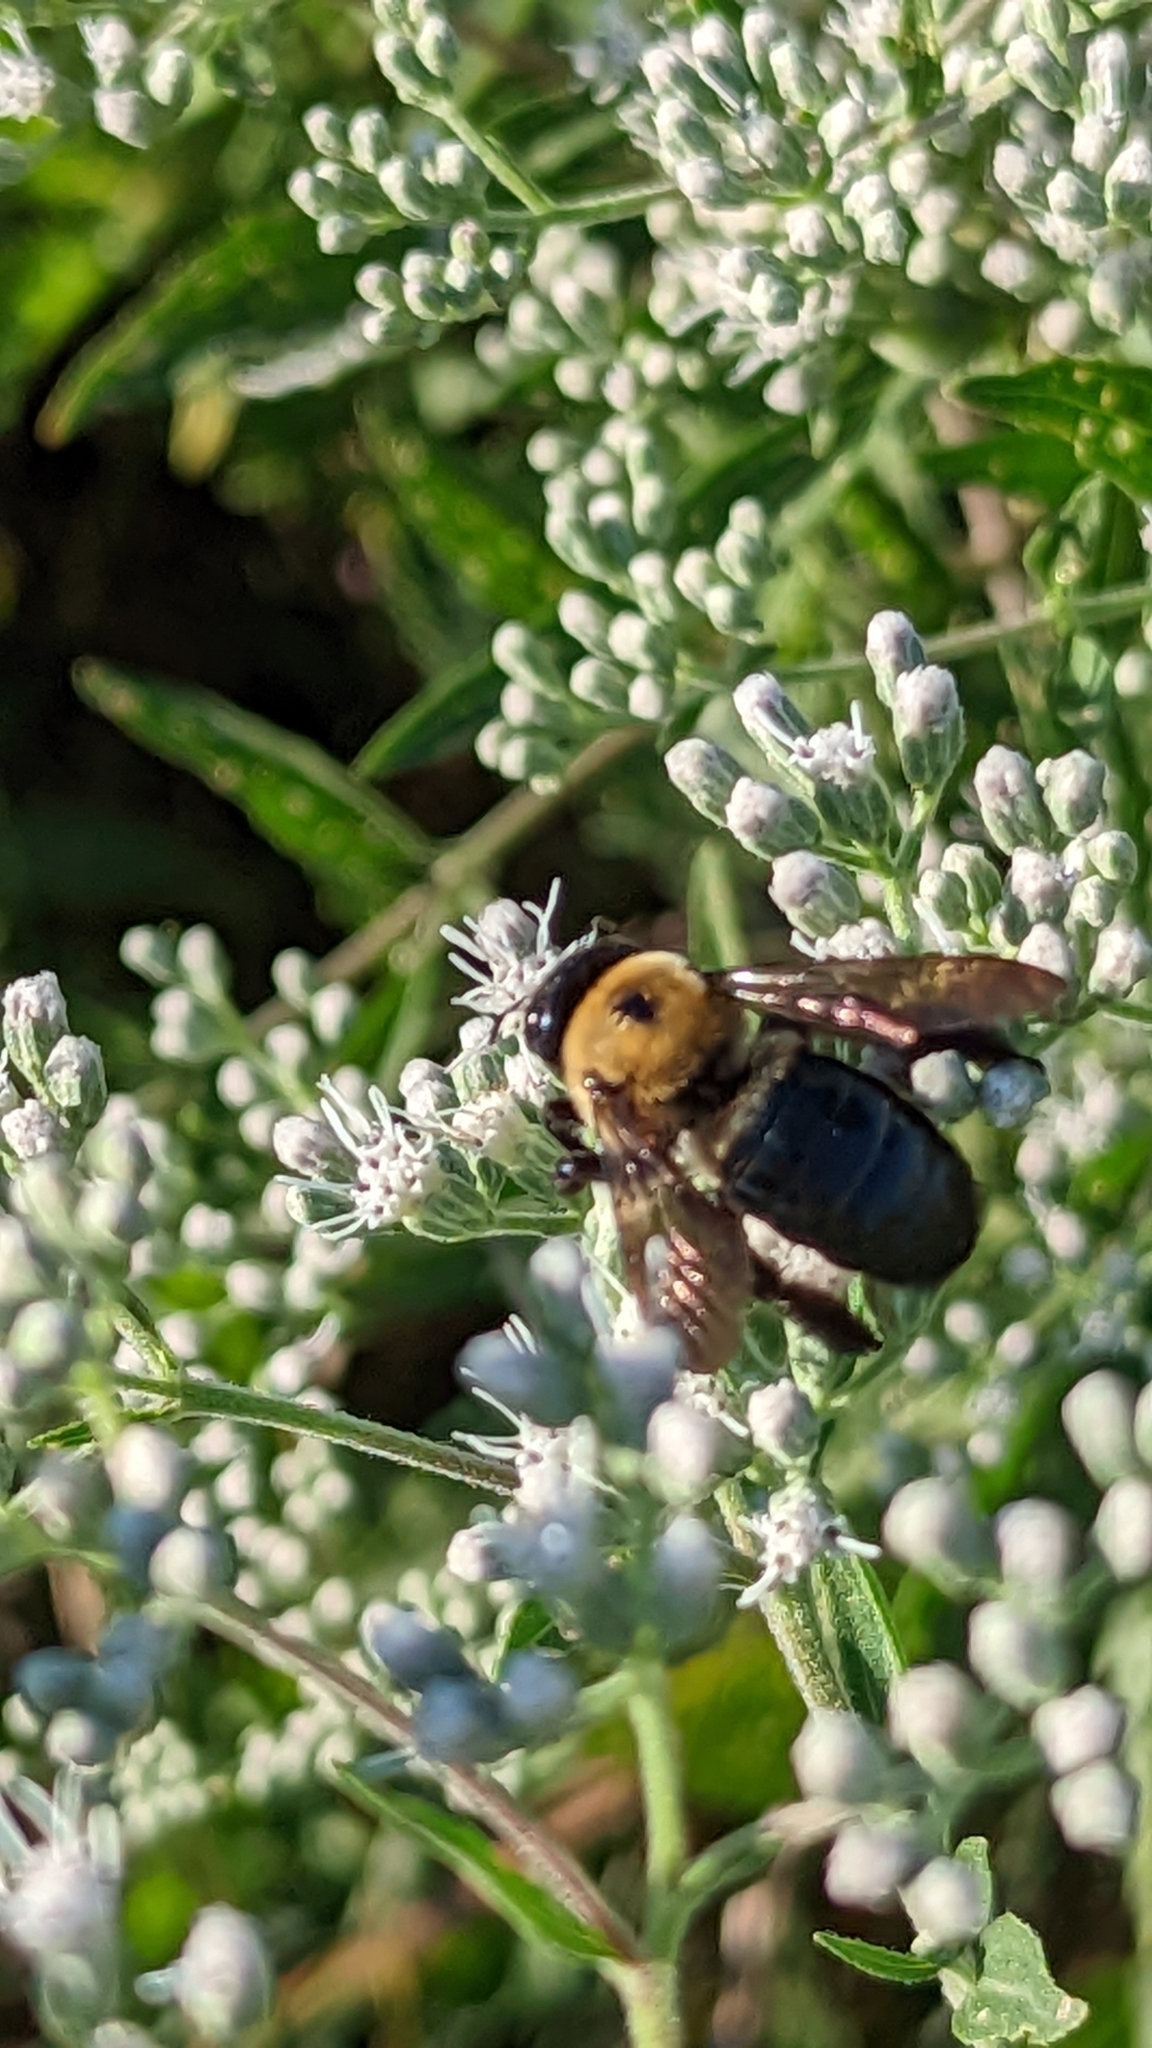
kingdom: Animalia
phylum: Arthropoda
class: Insecta
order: Hymenoptera
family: Apidae
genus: Xylocopa
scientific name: Xylocopa virginica
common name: Carpenter bee
